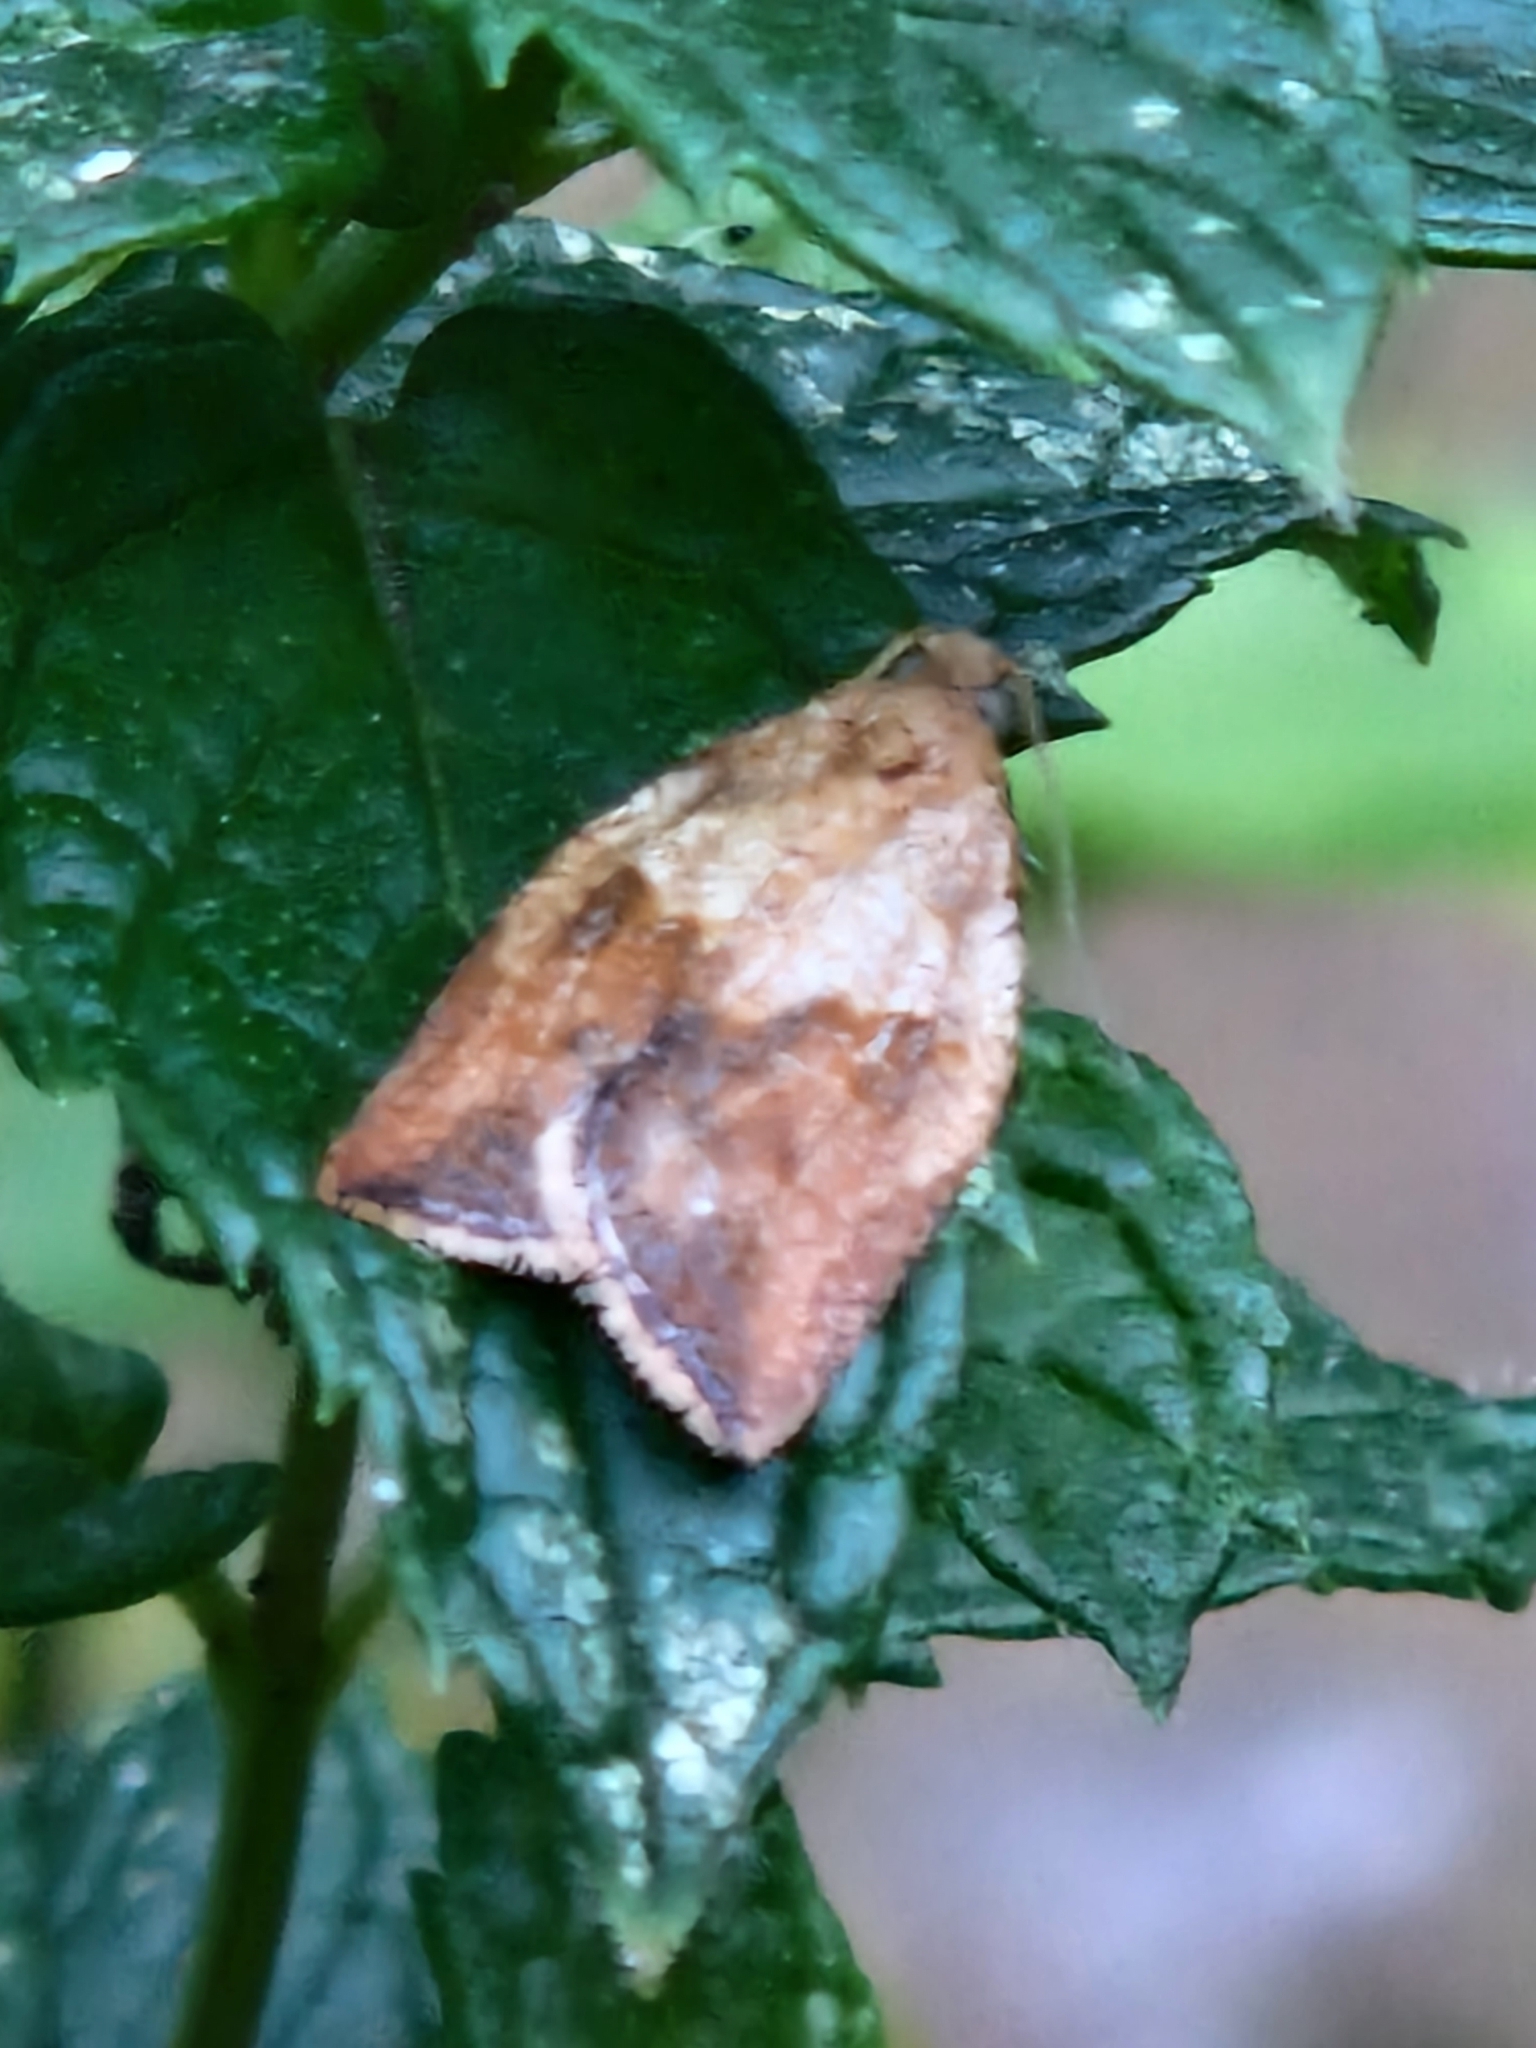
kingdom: Animalia
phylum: Arthropoda
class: Insecta
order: Lepidoptera
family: Tortricidae
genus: Epiphyas
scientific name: Epiphyas postvittana
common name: Light brown apple moth
